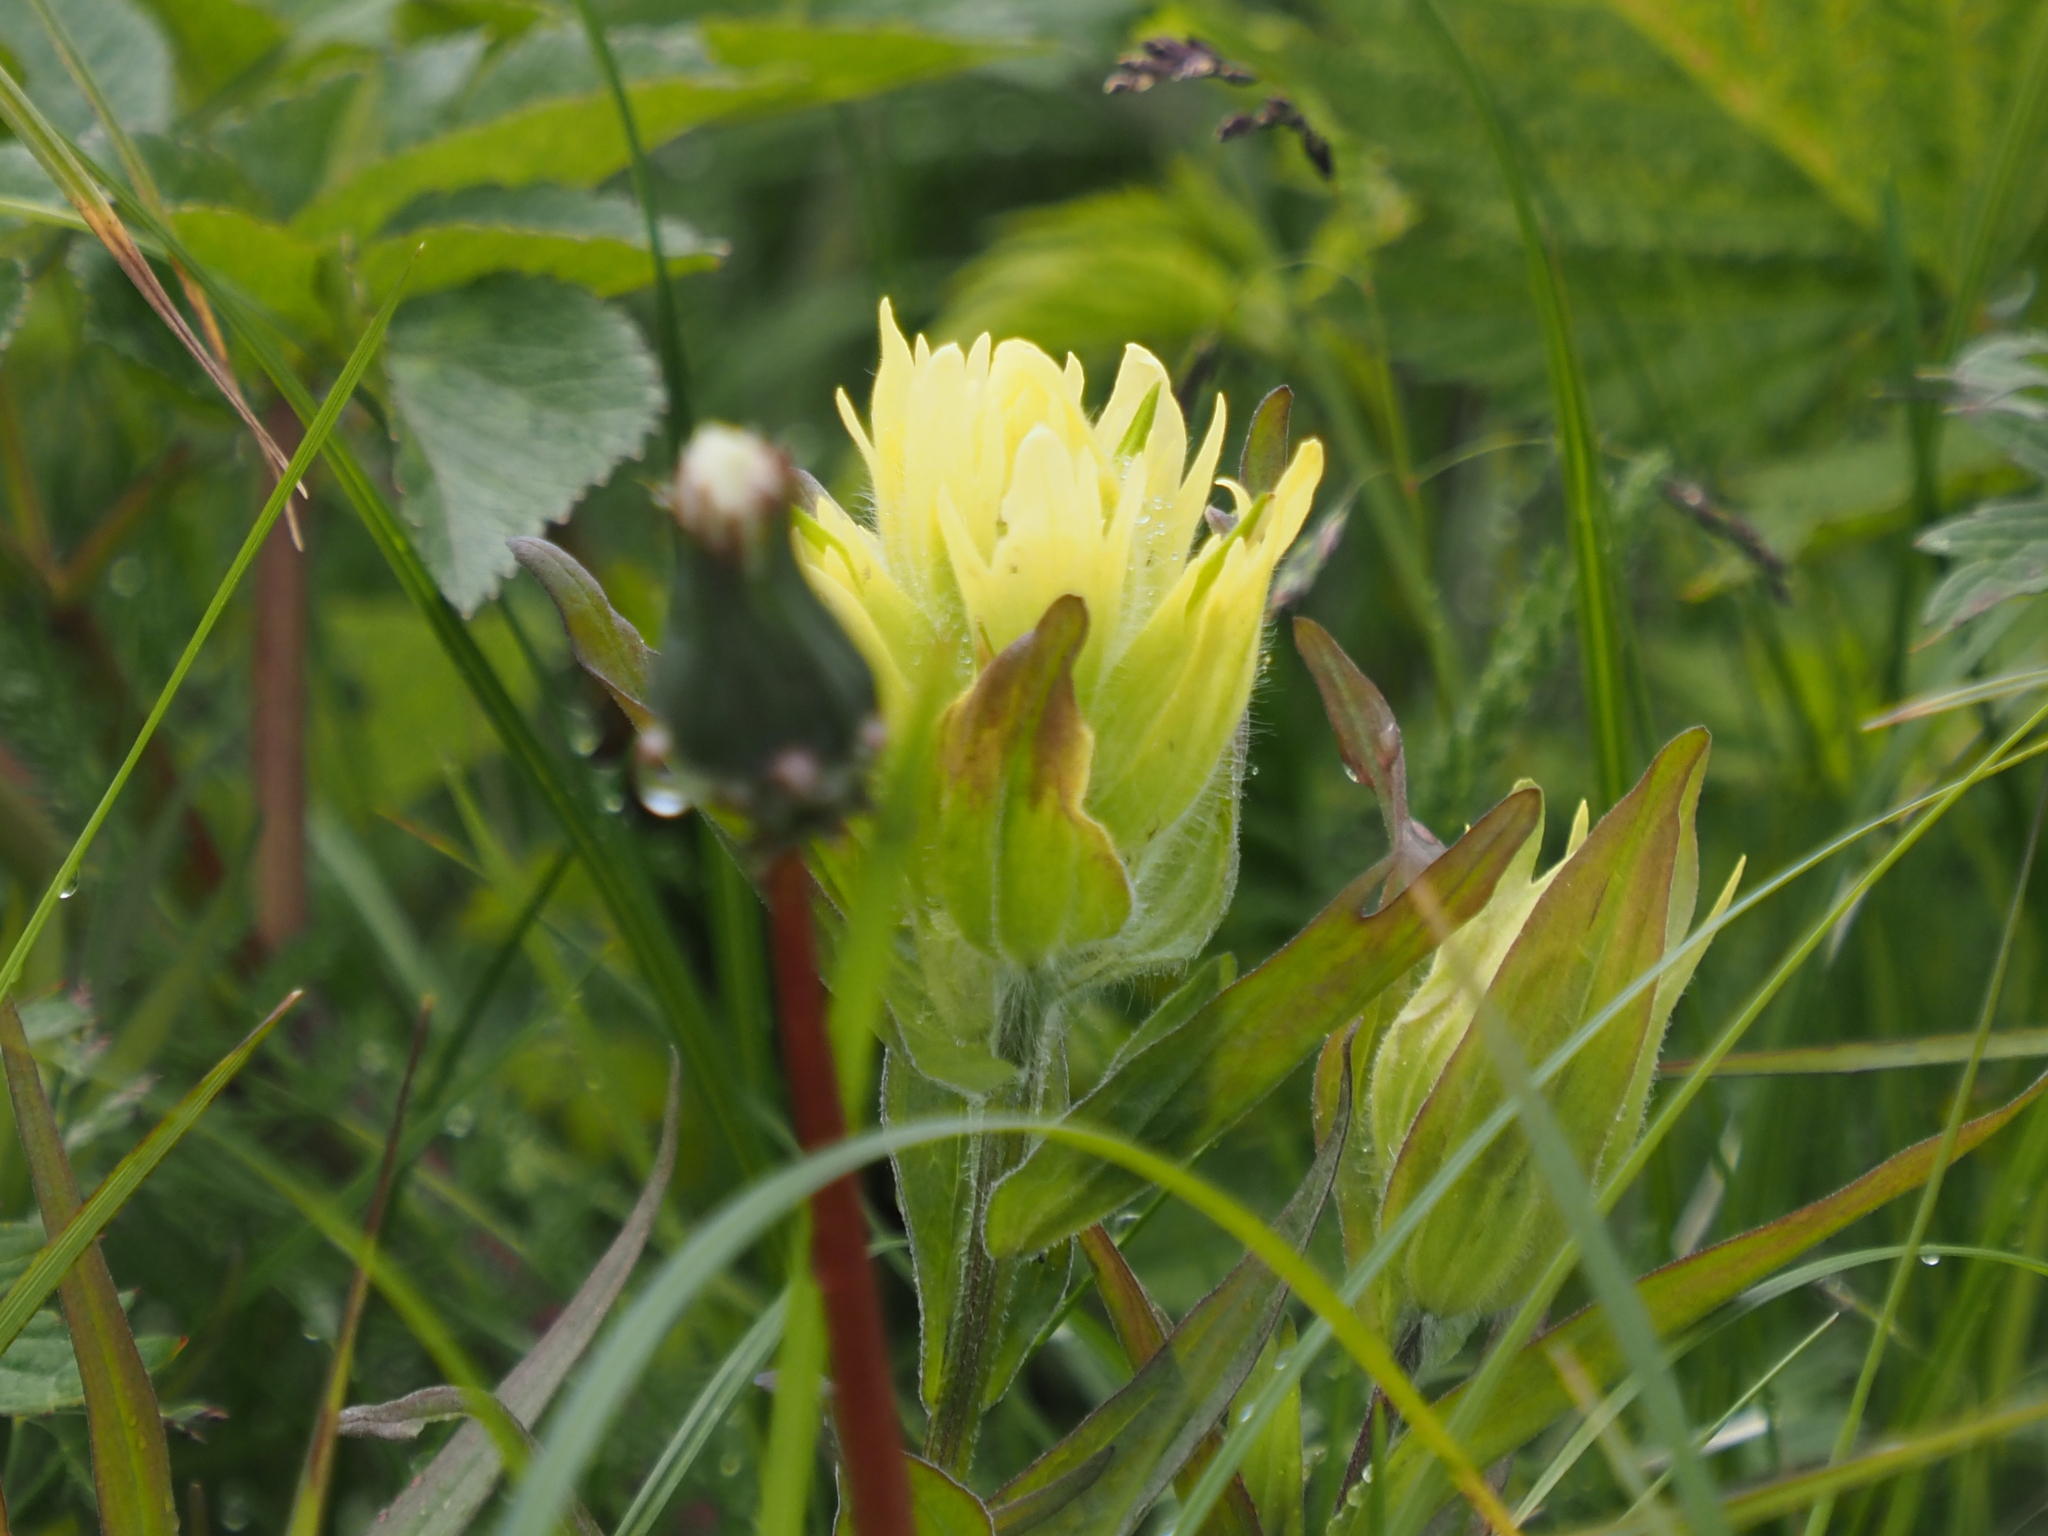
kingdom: Plantae
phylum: Tracheophyta
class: Magnoliopsida
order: Lamiales
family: Orobanchaceae
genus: Castilleja
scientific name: Castilleja unalaschcensis
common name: Unalaska paintbrush
